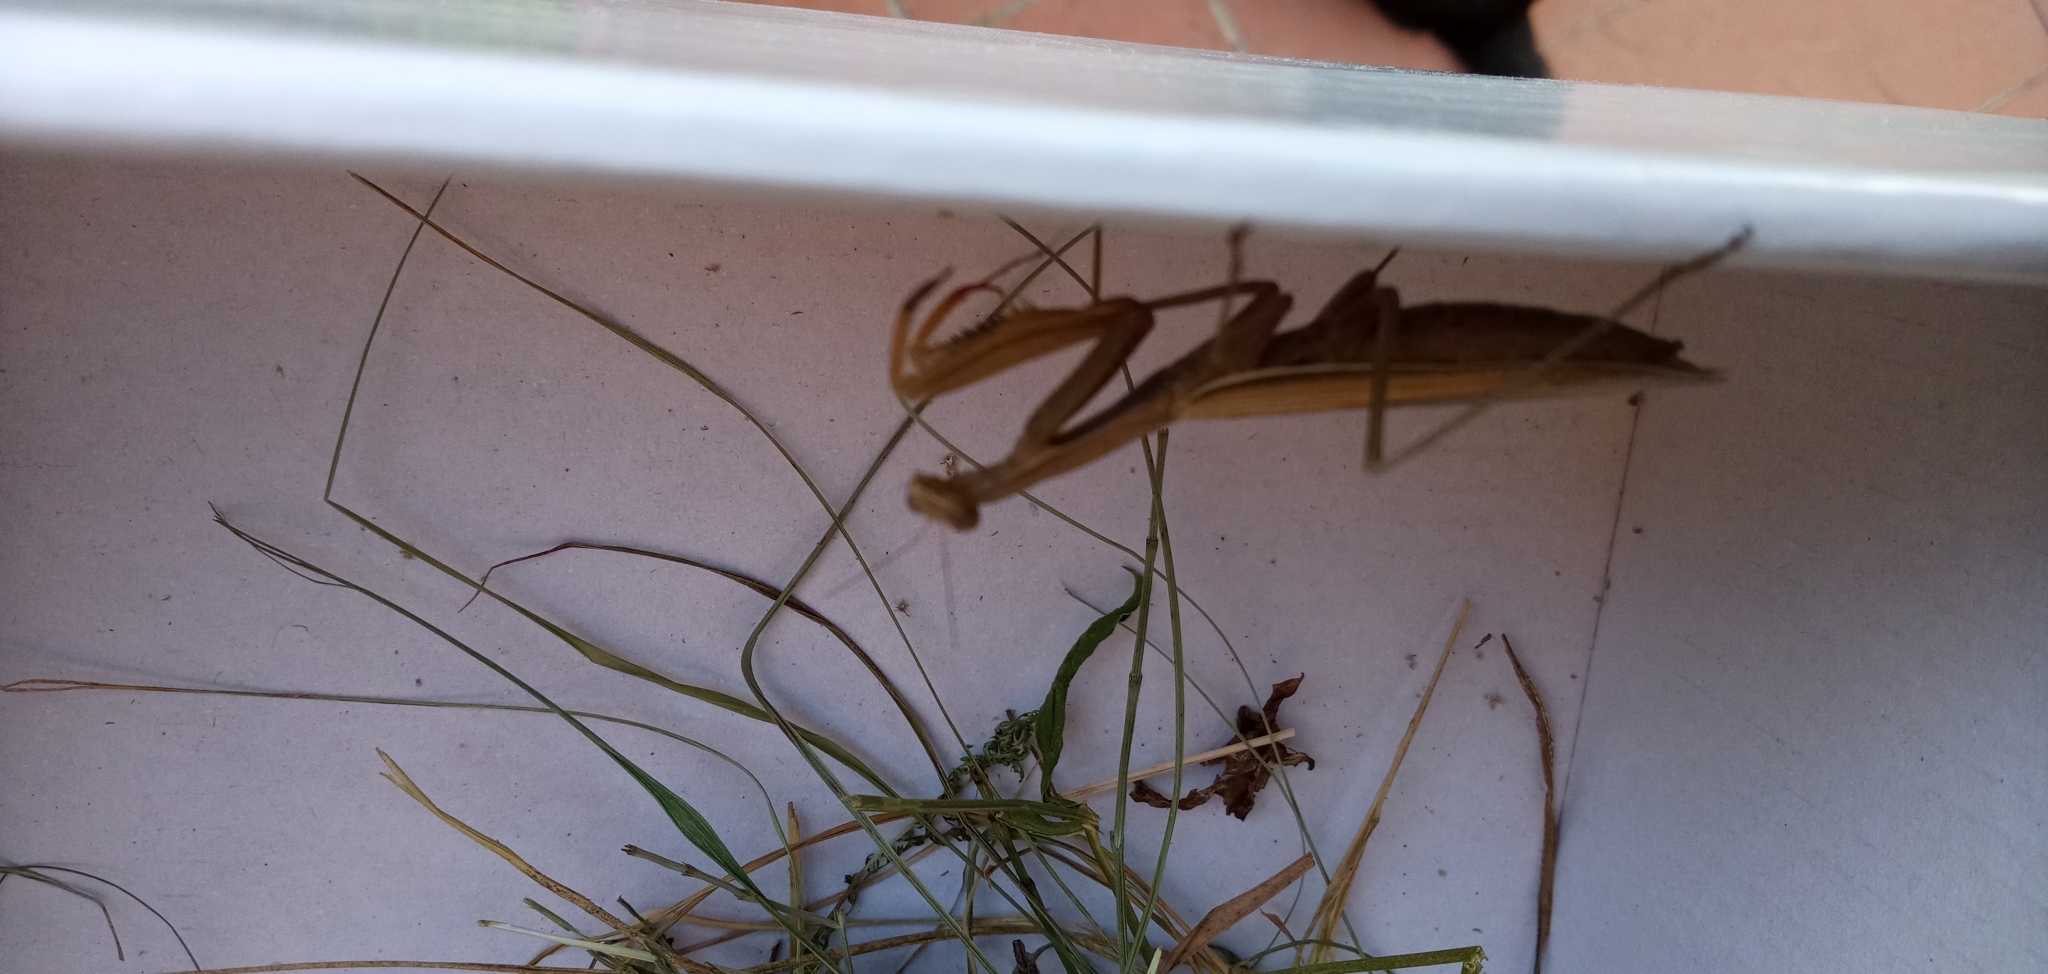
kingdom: Animalia
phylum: Arthropoda
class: Insecta
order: Mantodea
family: Mantidae
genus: Mantis
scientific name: Mantis religiosa
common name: Praying mantis
